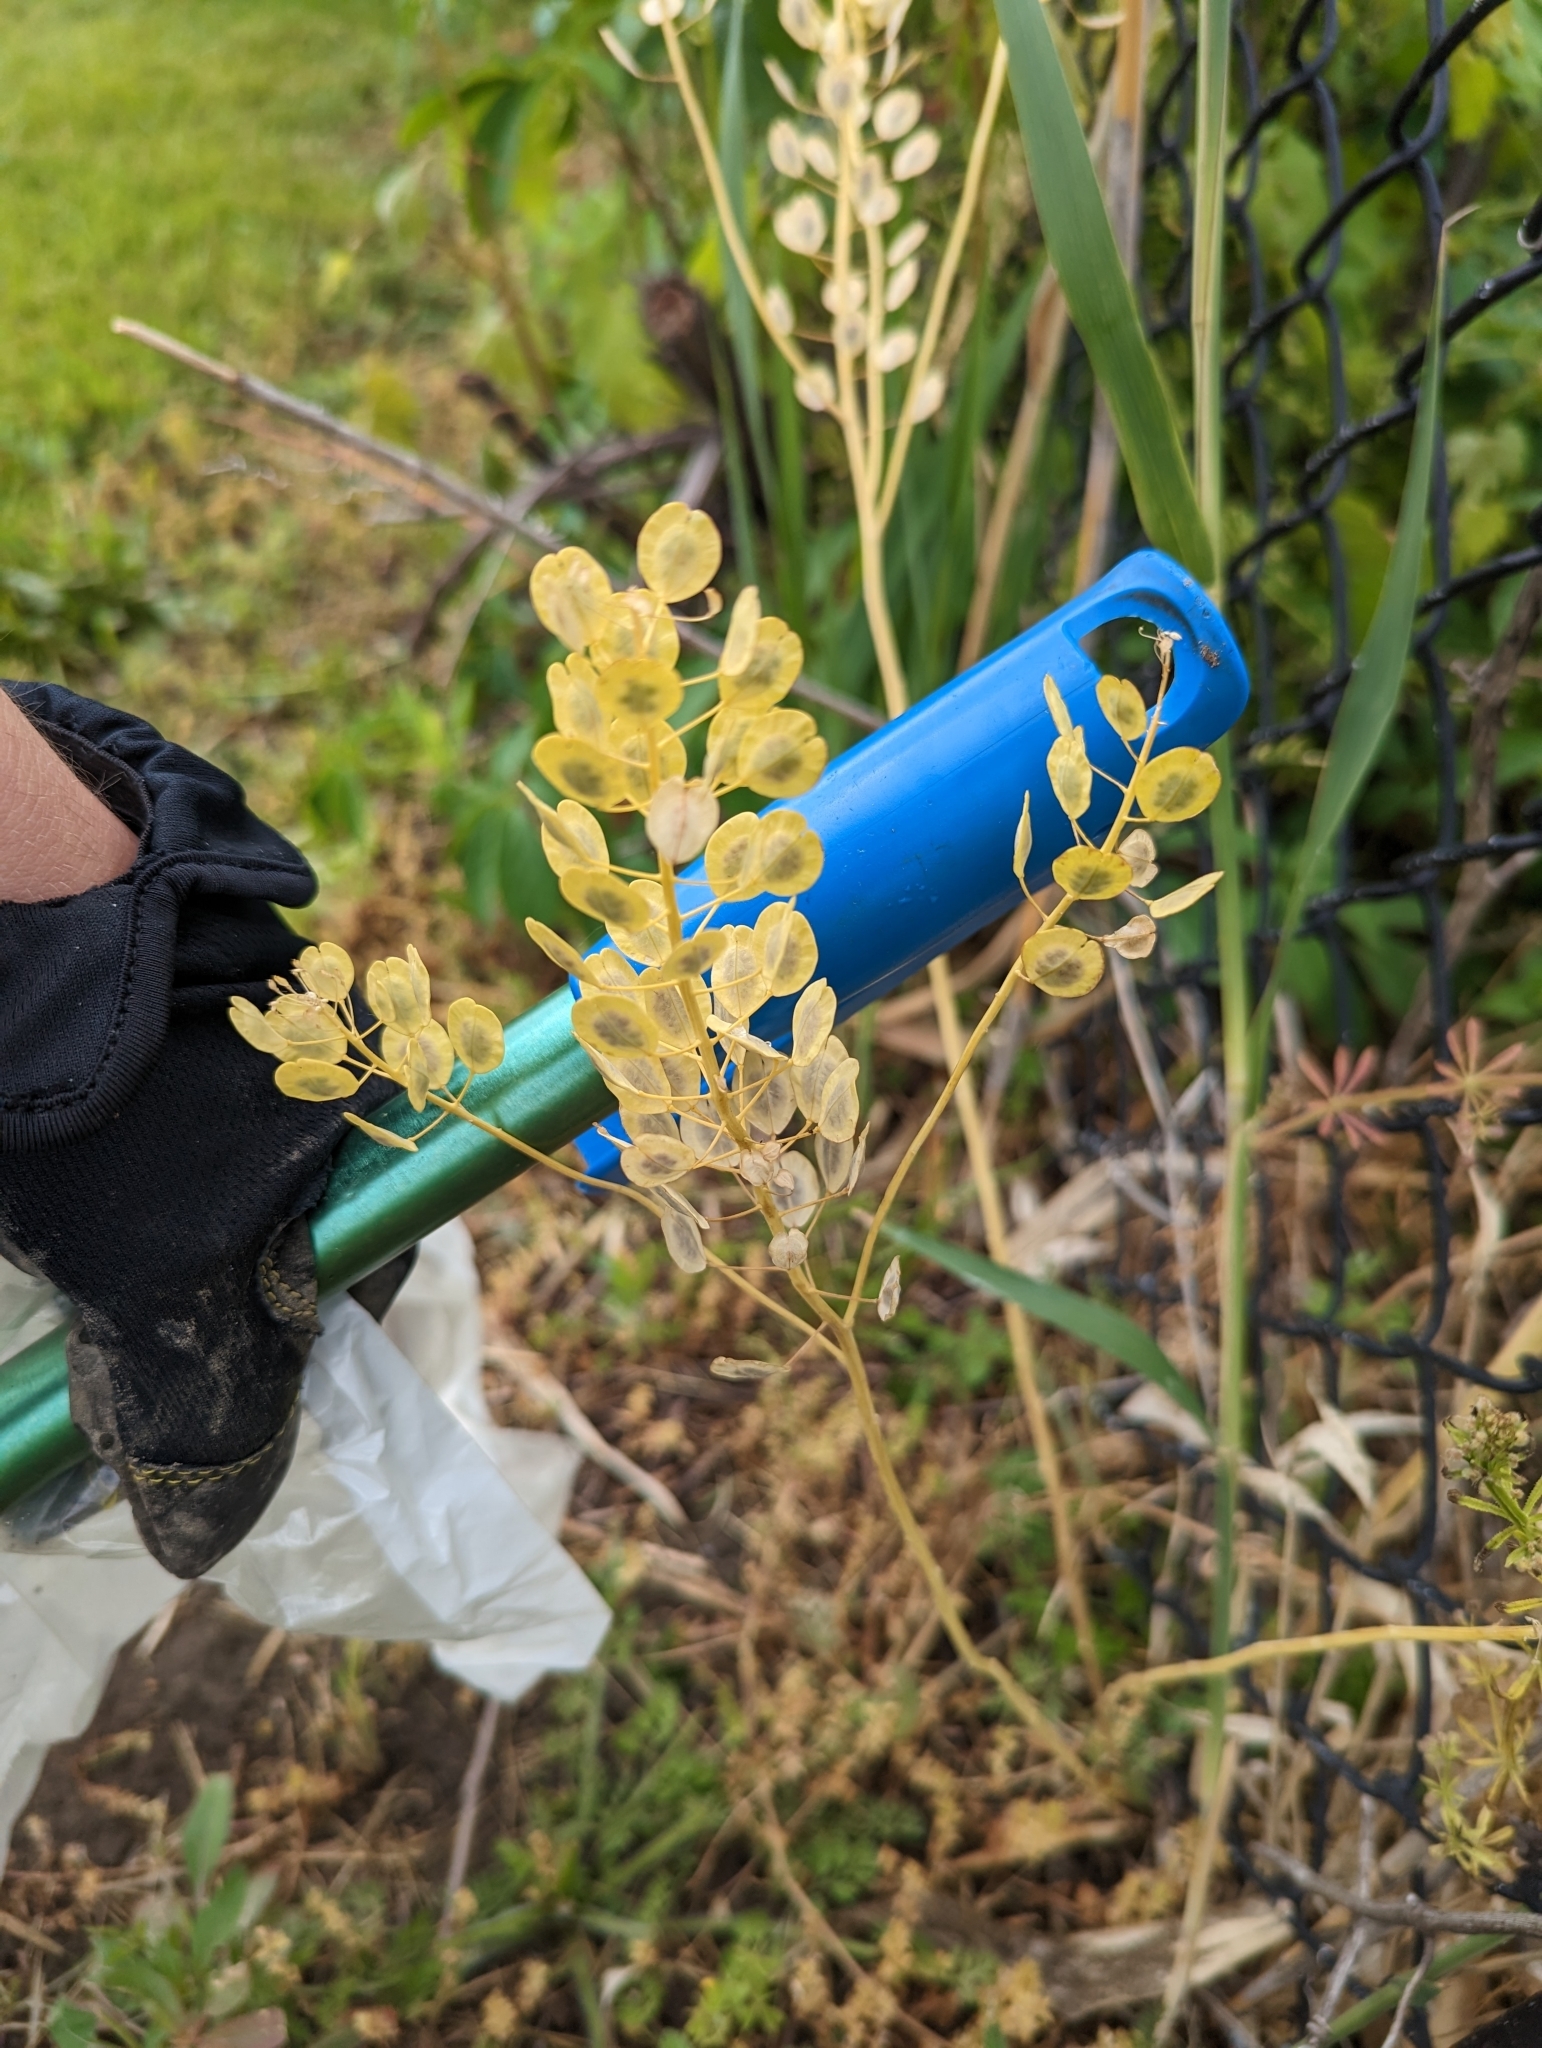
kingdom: Plantae
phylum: Tracheophyta
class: Magnoliopsida
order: Brassicales
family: Brassicaceae
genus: Thlaspi
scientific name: Thlaspi arvense
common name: Field pennycress
